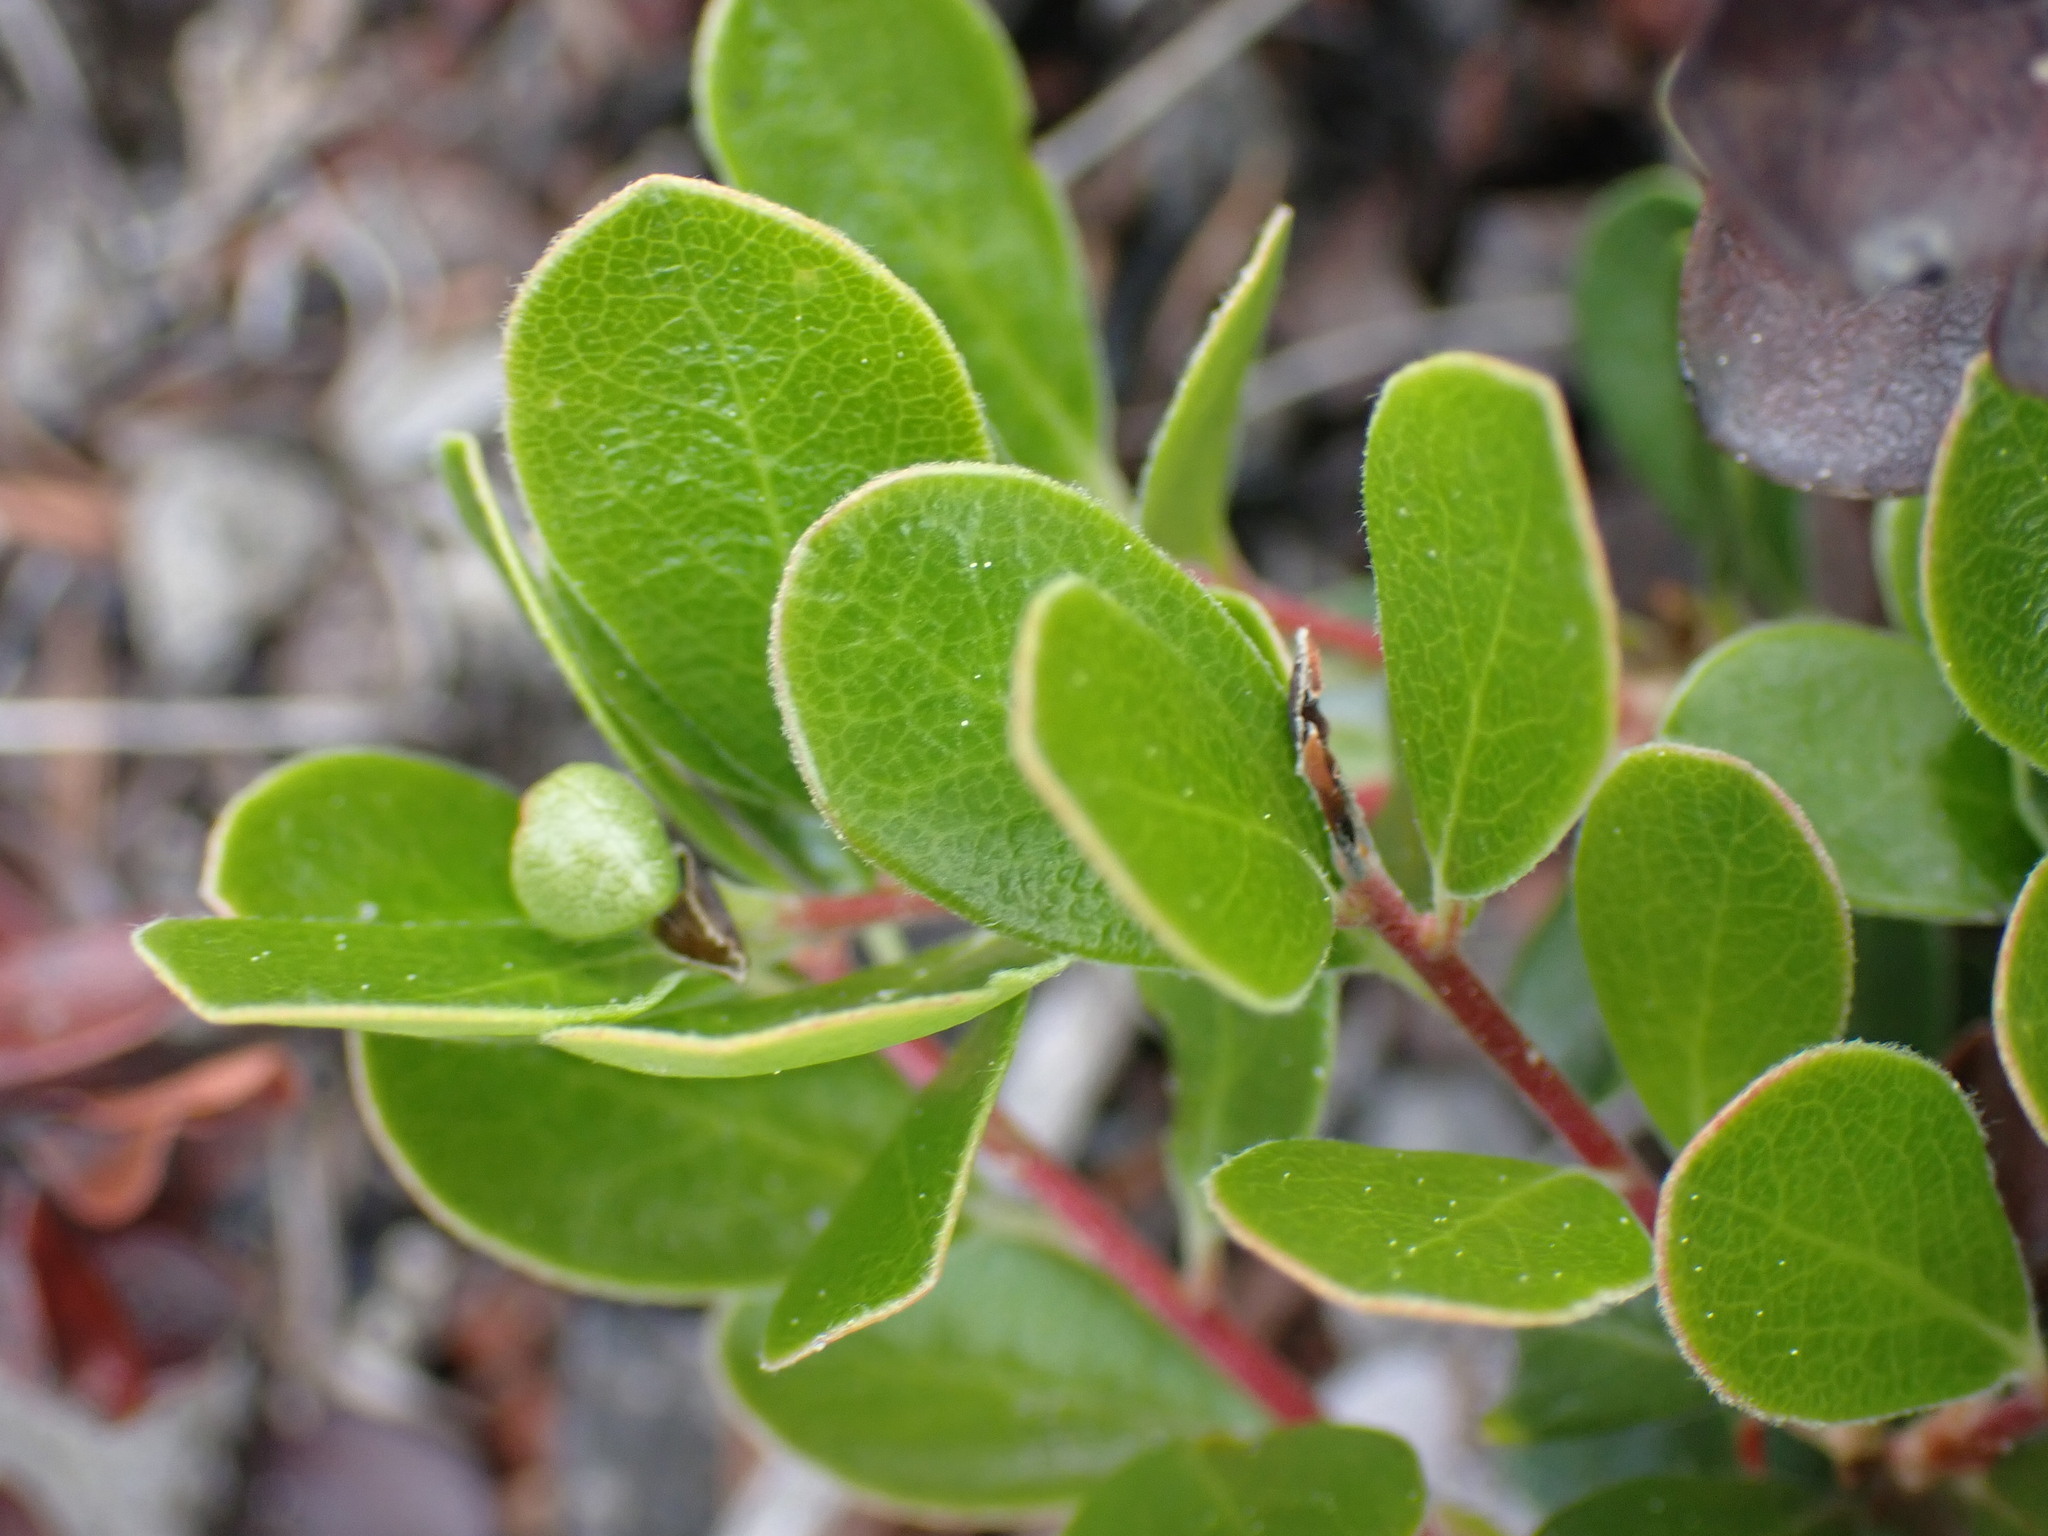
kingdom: Plantae
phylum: Tracheophyta
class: Magnoliopsida
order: Ericales
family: Ericaceae
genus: Arctostaphylos
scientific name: Arctostaphylos uva-ursi
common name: Bearberry
